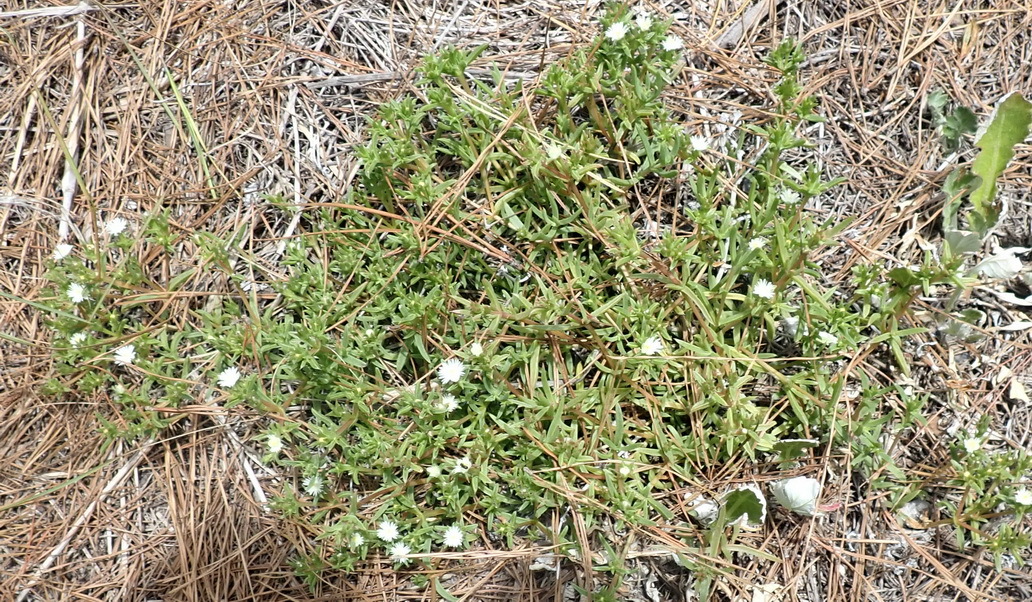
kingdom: Plantae
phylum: Tracheophyta
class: Magnoliopsida
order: Caryophyllales
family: Aizoaceae
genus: Delosperma
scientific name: Delosperma inconspicuum
